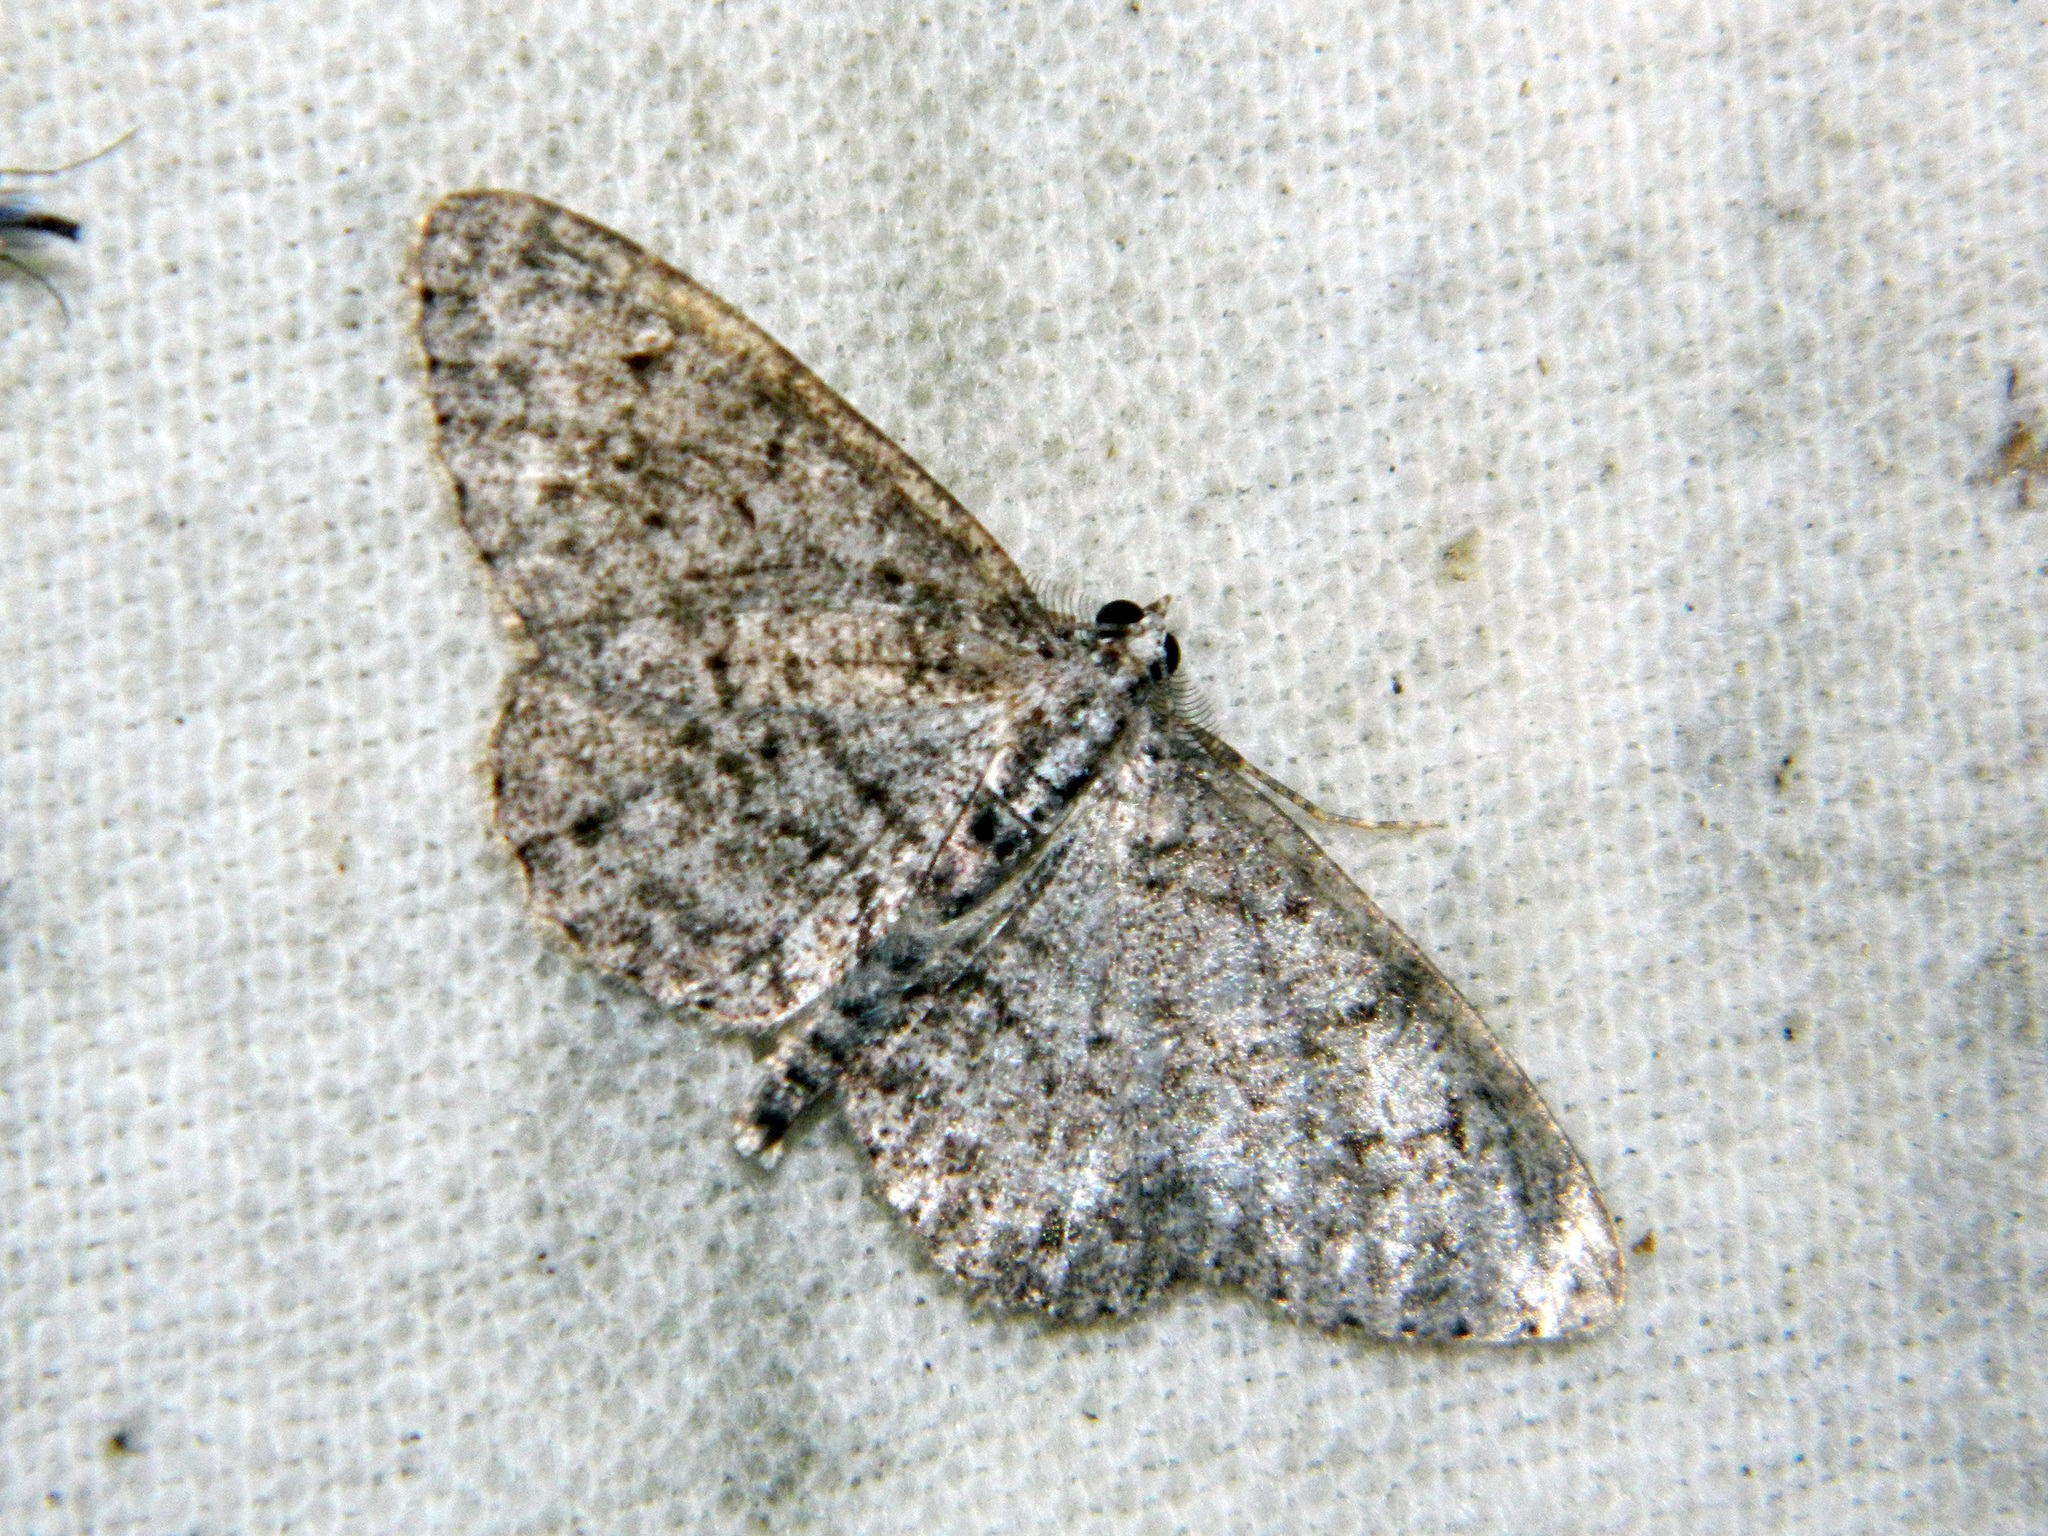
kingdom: Animalia
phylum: Arthropoda
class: Insecta
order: Lepidoptera
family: Geometridae
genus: Protoboarmia
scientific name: Protoboarmia porcelaria
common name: Porcelain gray
